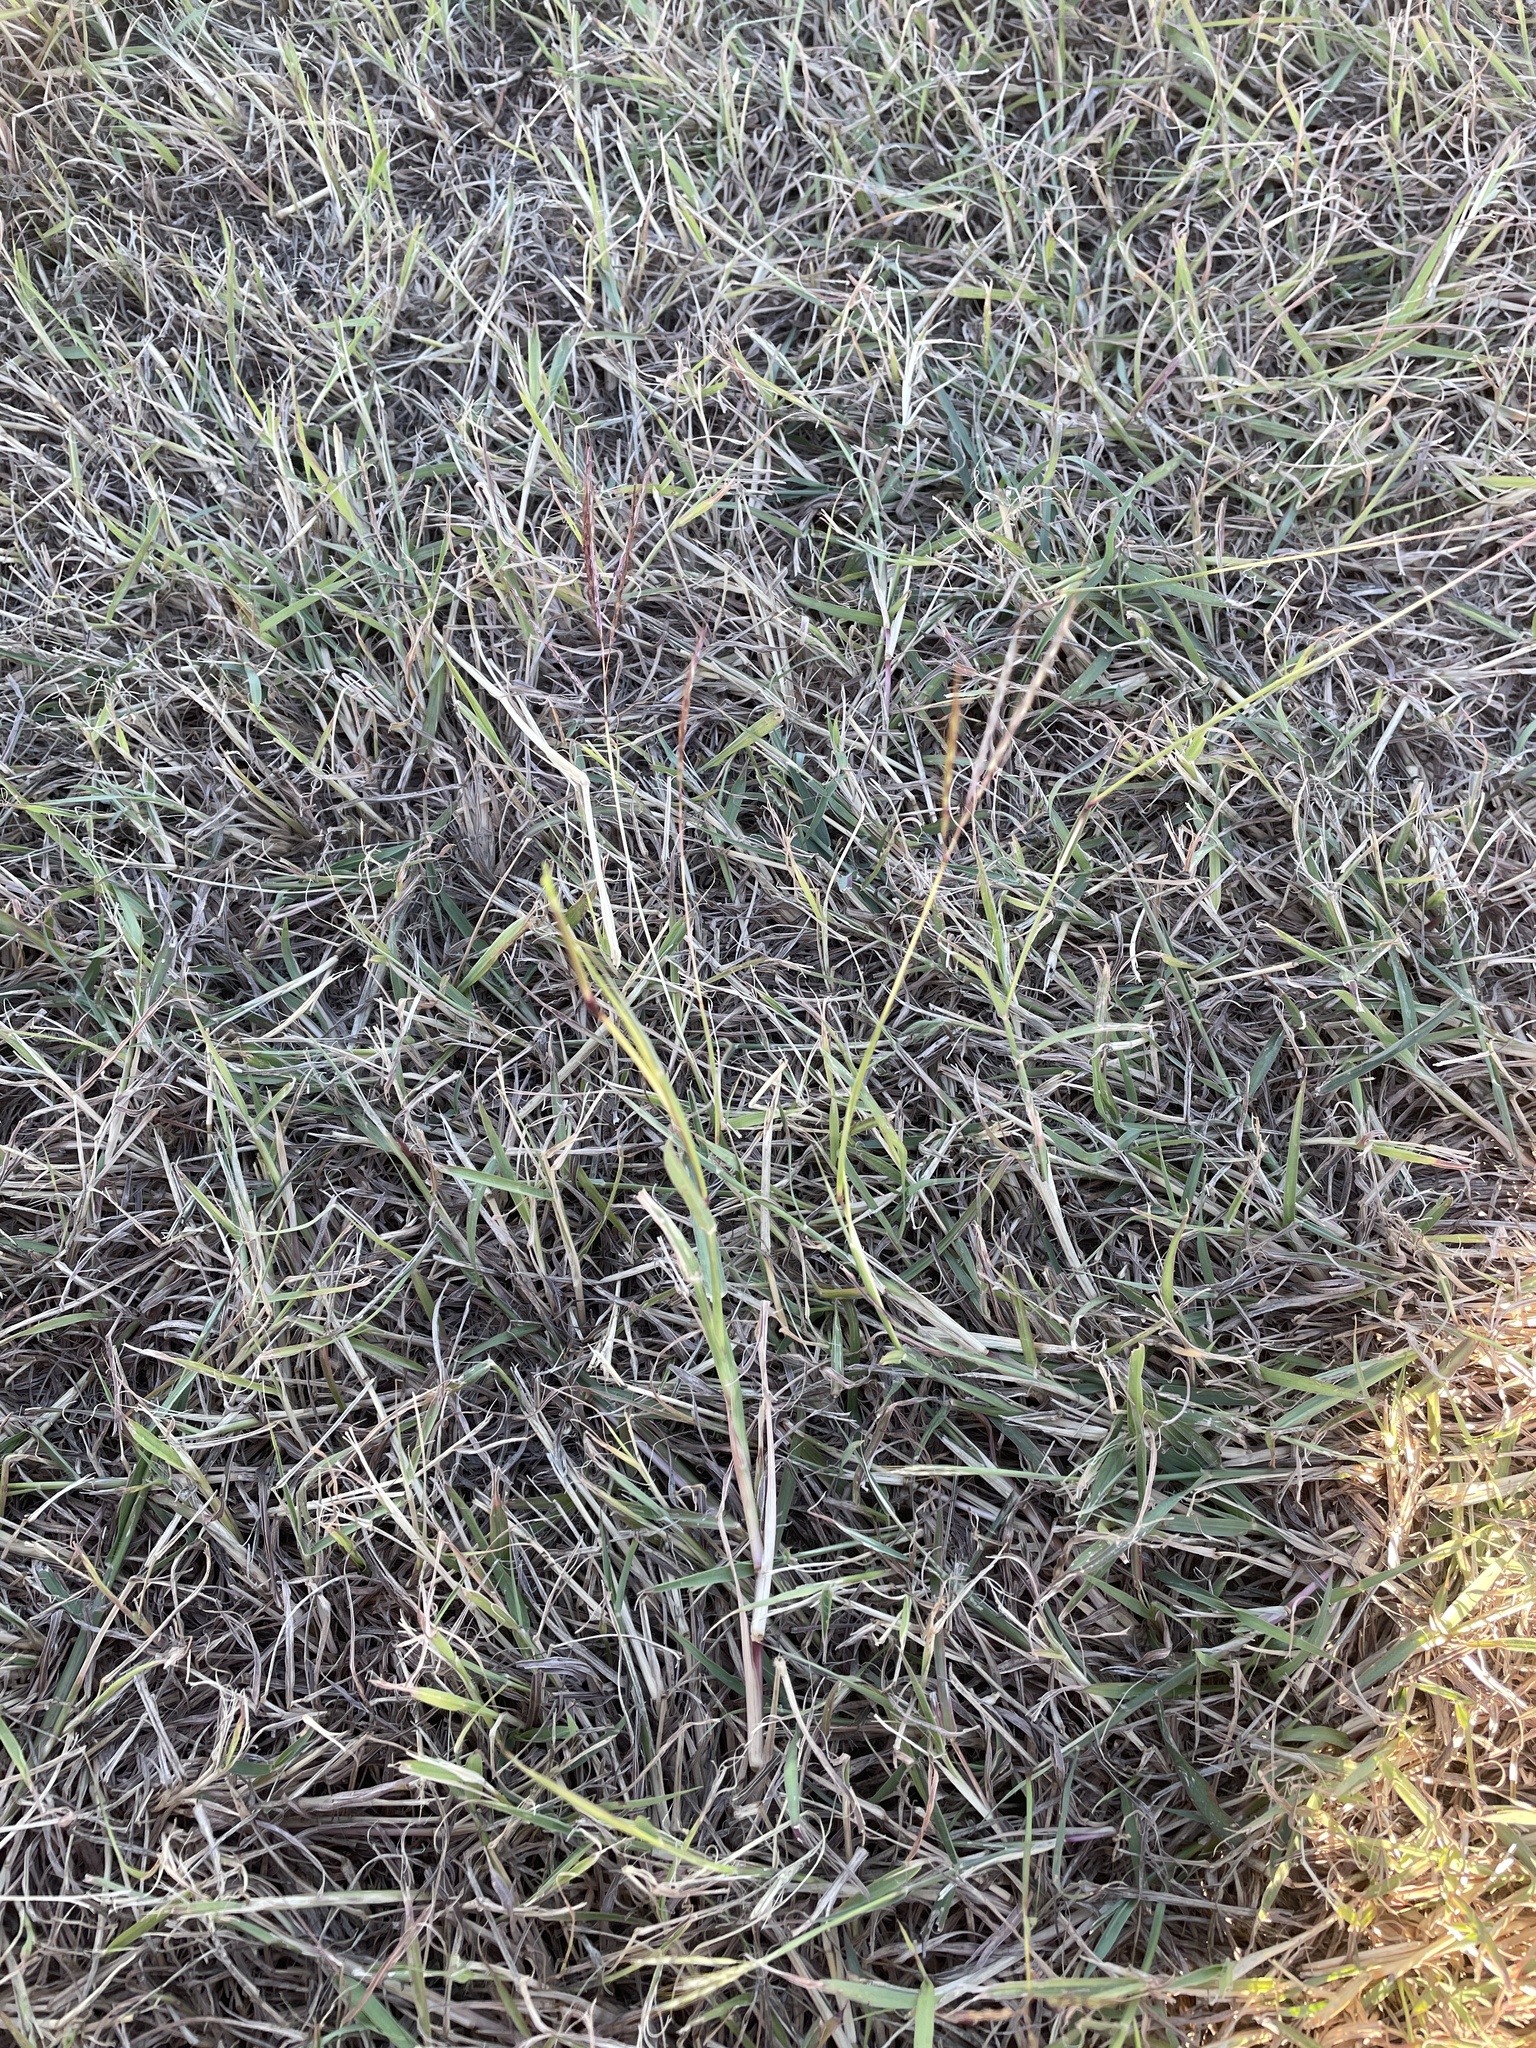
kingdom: Plantae
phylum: Tracheophyta
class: Liliopsida
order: Poales
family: Poaceae
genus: Bothriochloa
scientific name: Bothriochloa ischaemum
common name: Yellow bluestem
